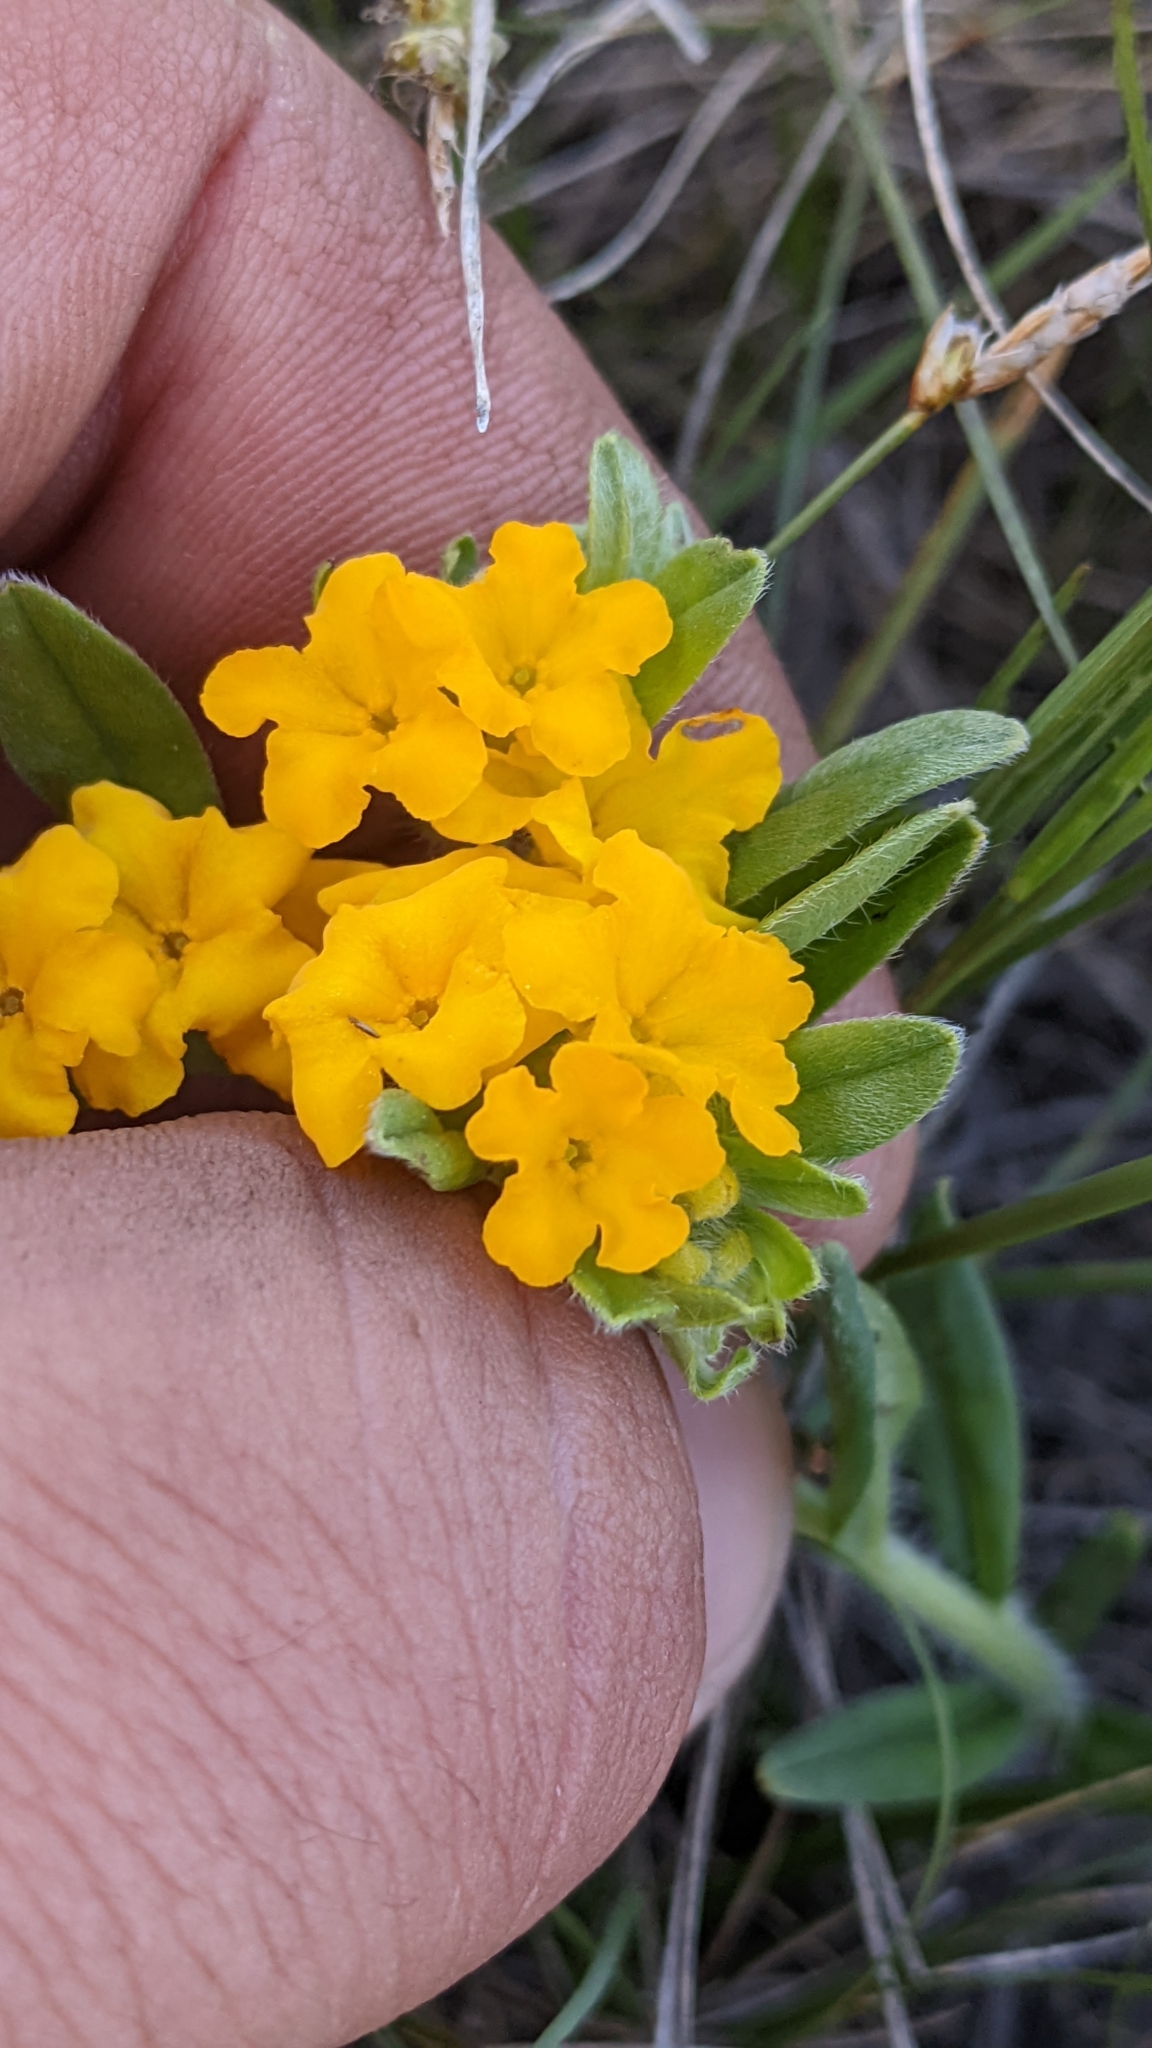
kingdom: Plantae
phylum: Tracheophyta
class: Magnoliopsida
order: Boraginales
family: Boraginaceae
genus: Lithospermum
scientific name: Lithospermum canescens
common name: Hoary puccoon
